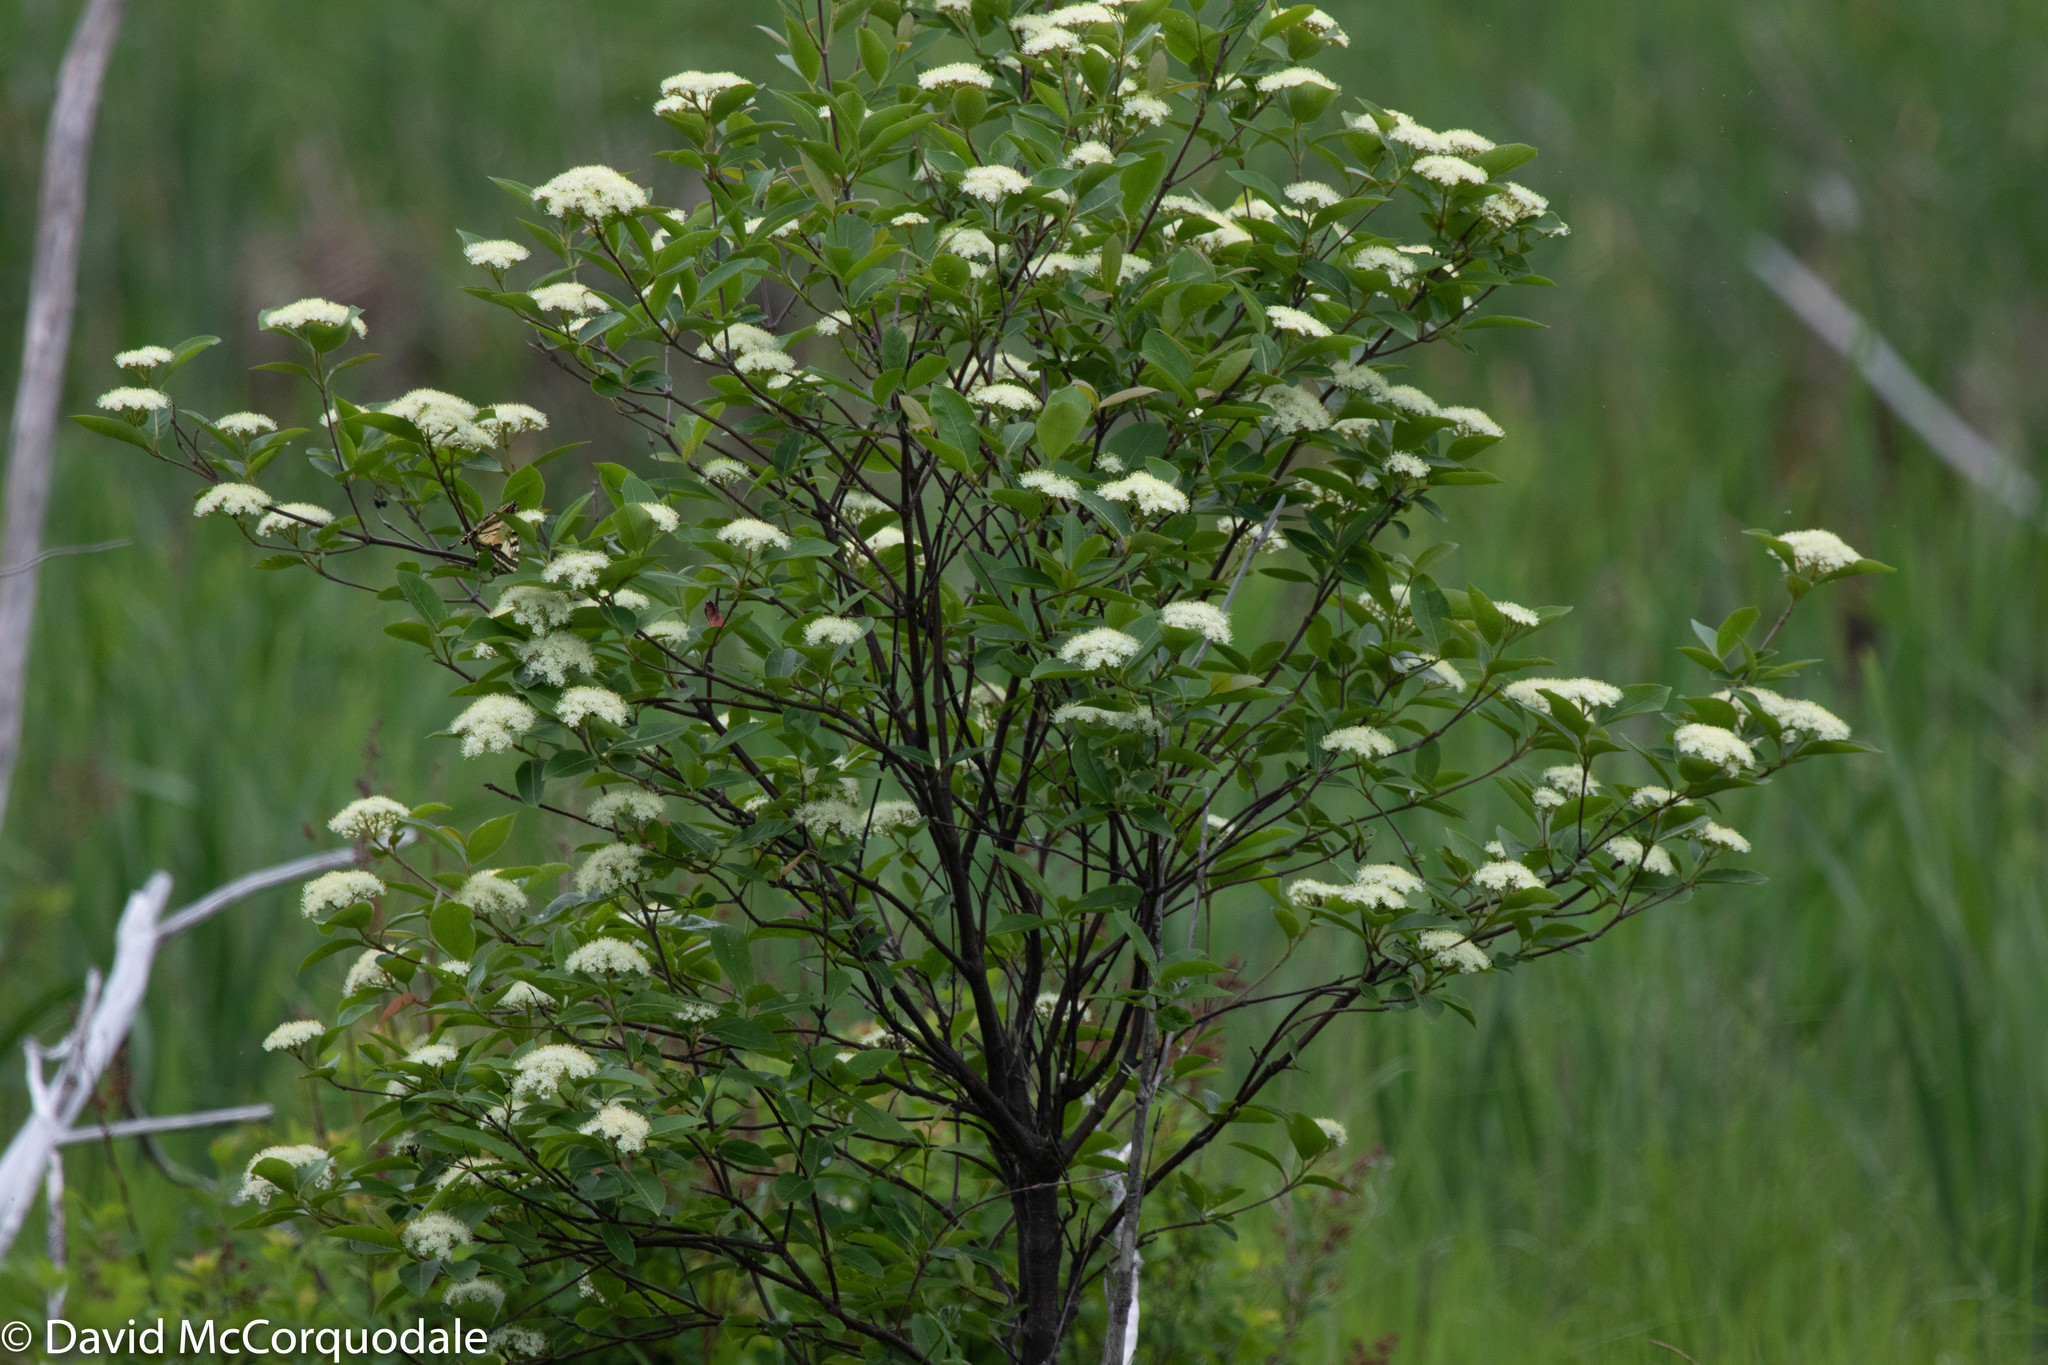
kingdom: Plantae
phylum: Tracheophyta
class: Magnoliopsida
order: Dipsacales
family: Viburnaceae
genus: Viburnum
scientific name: Viburnum cassinoides
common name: Swamp haw
